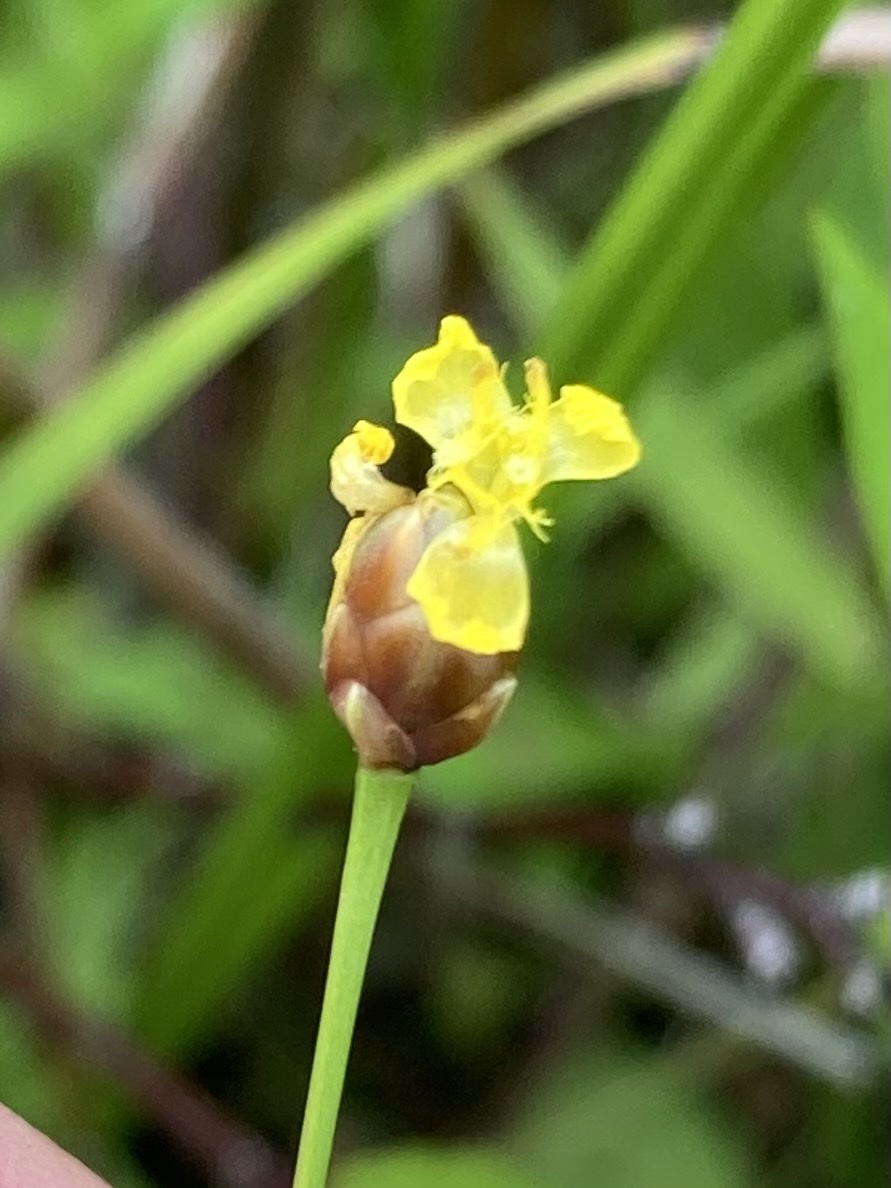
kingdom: Plantae
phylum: Tracheophyta
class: Liliopsida
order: Poales
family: Xyridaceae
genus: Xyris
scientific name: Xyris torta
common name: Common yelloweyed grass
